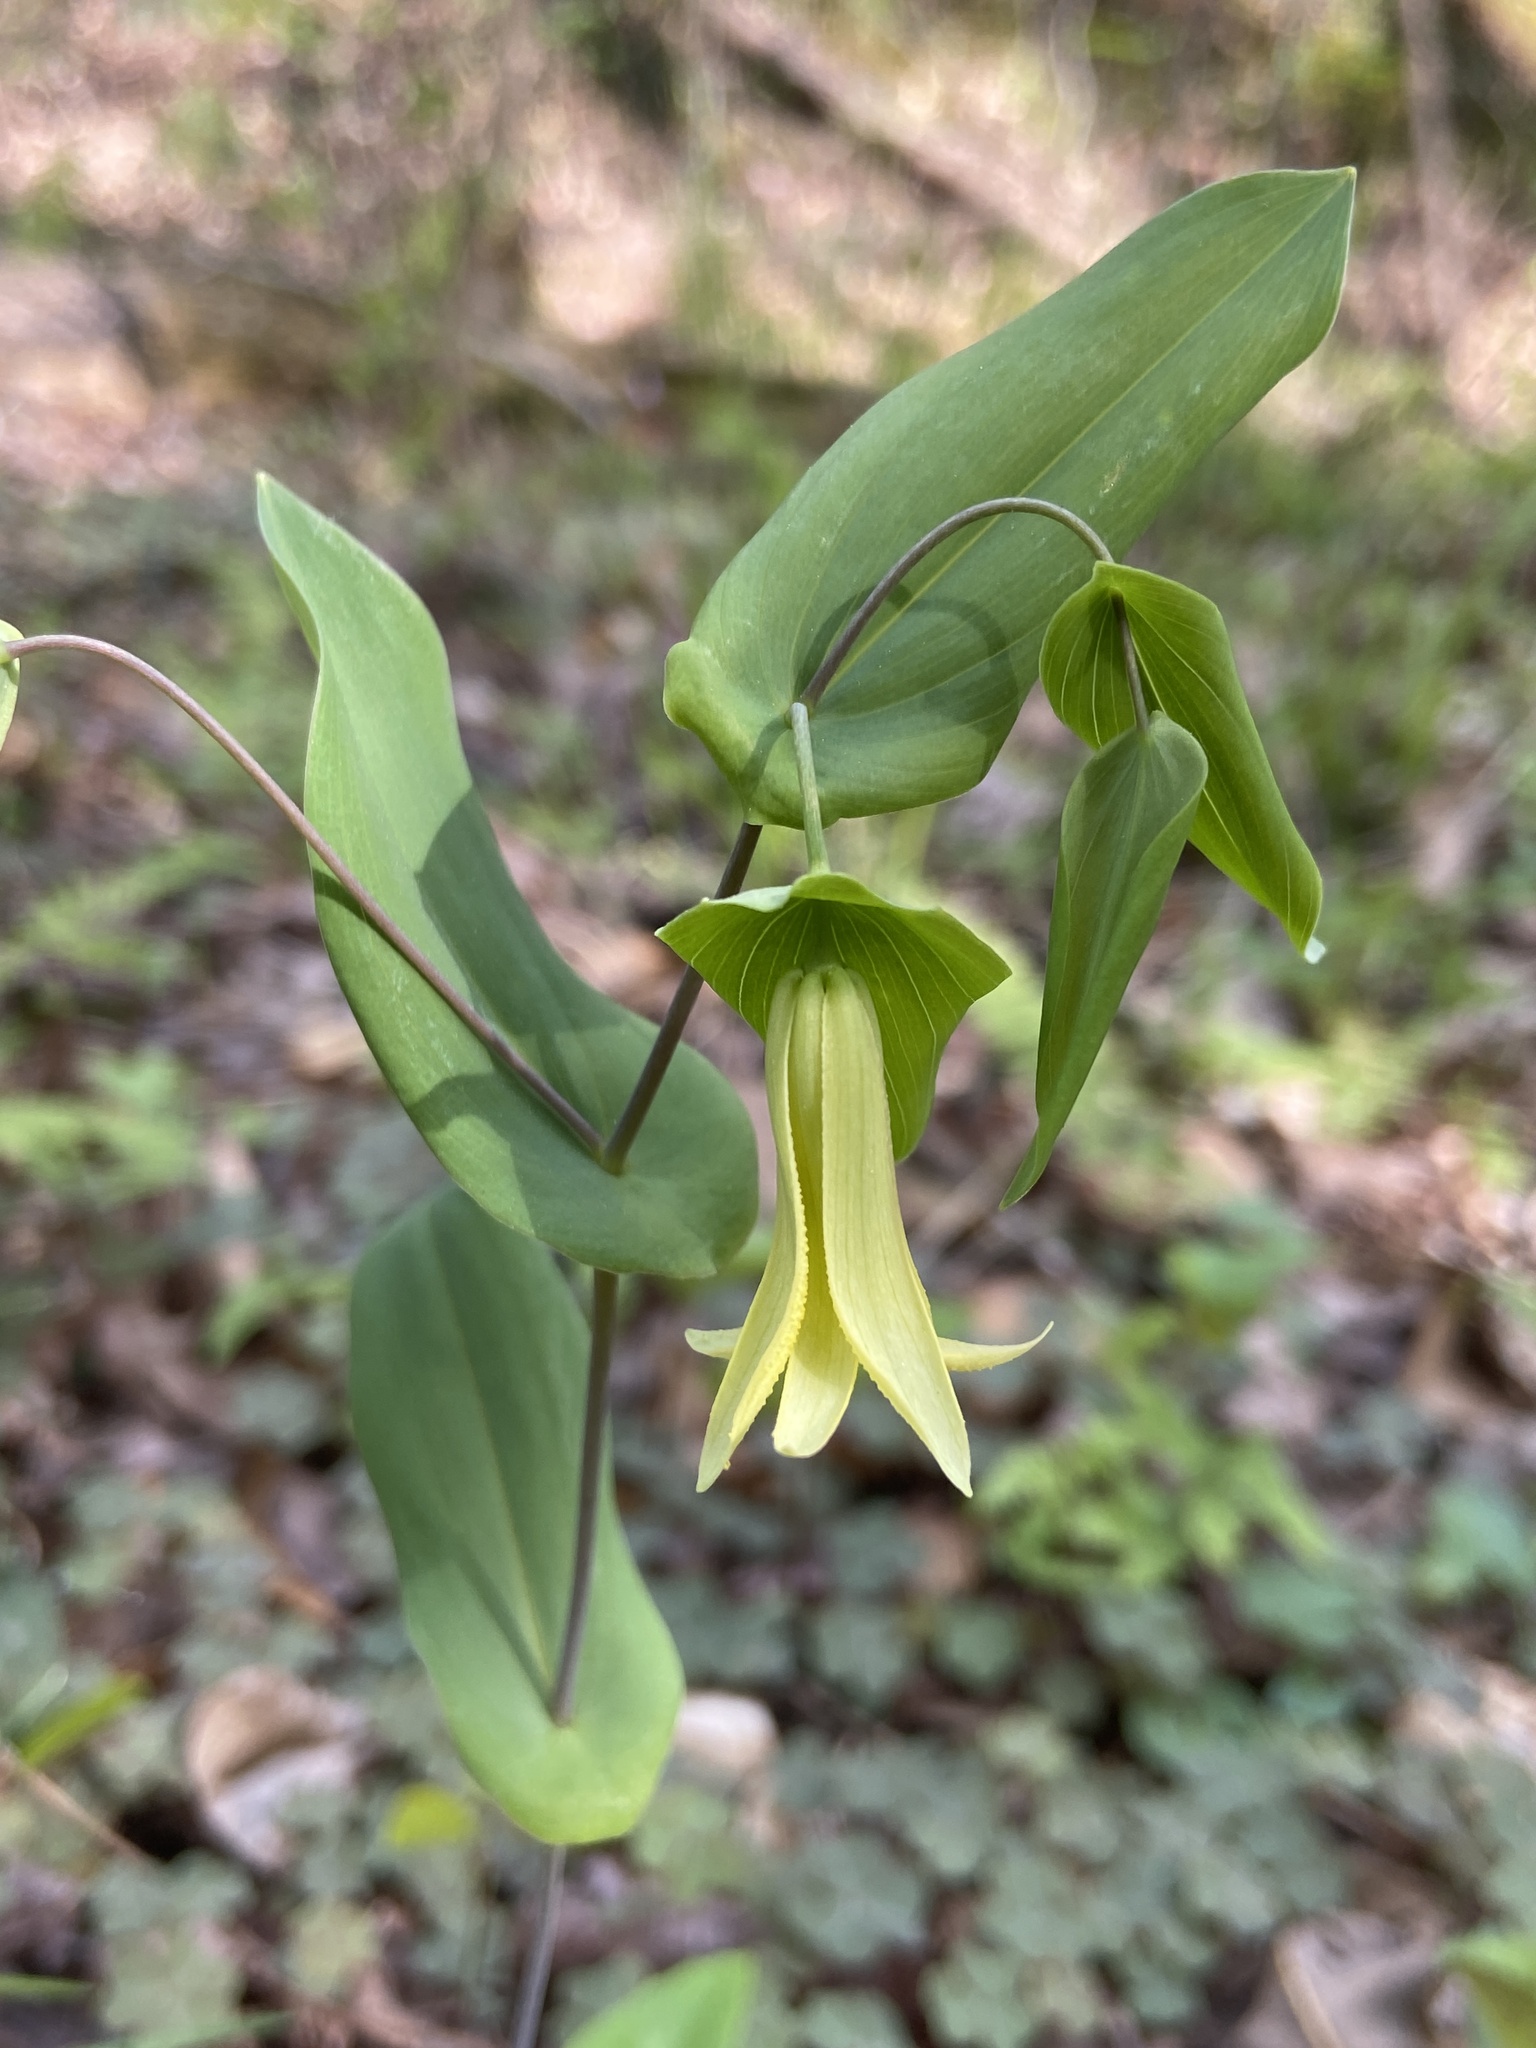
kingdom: Plantae
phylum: Tracheophyta
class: Liliopsida
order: Liliales
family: Colchicaceae
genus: Uvularia
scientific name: Uvularia perfoliata
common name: Perfoliate bellwort
